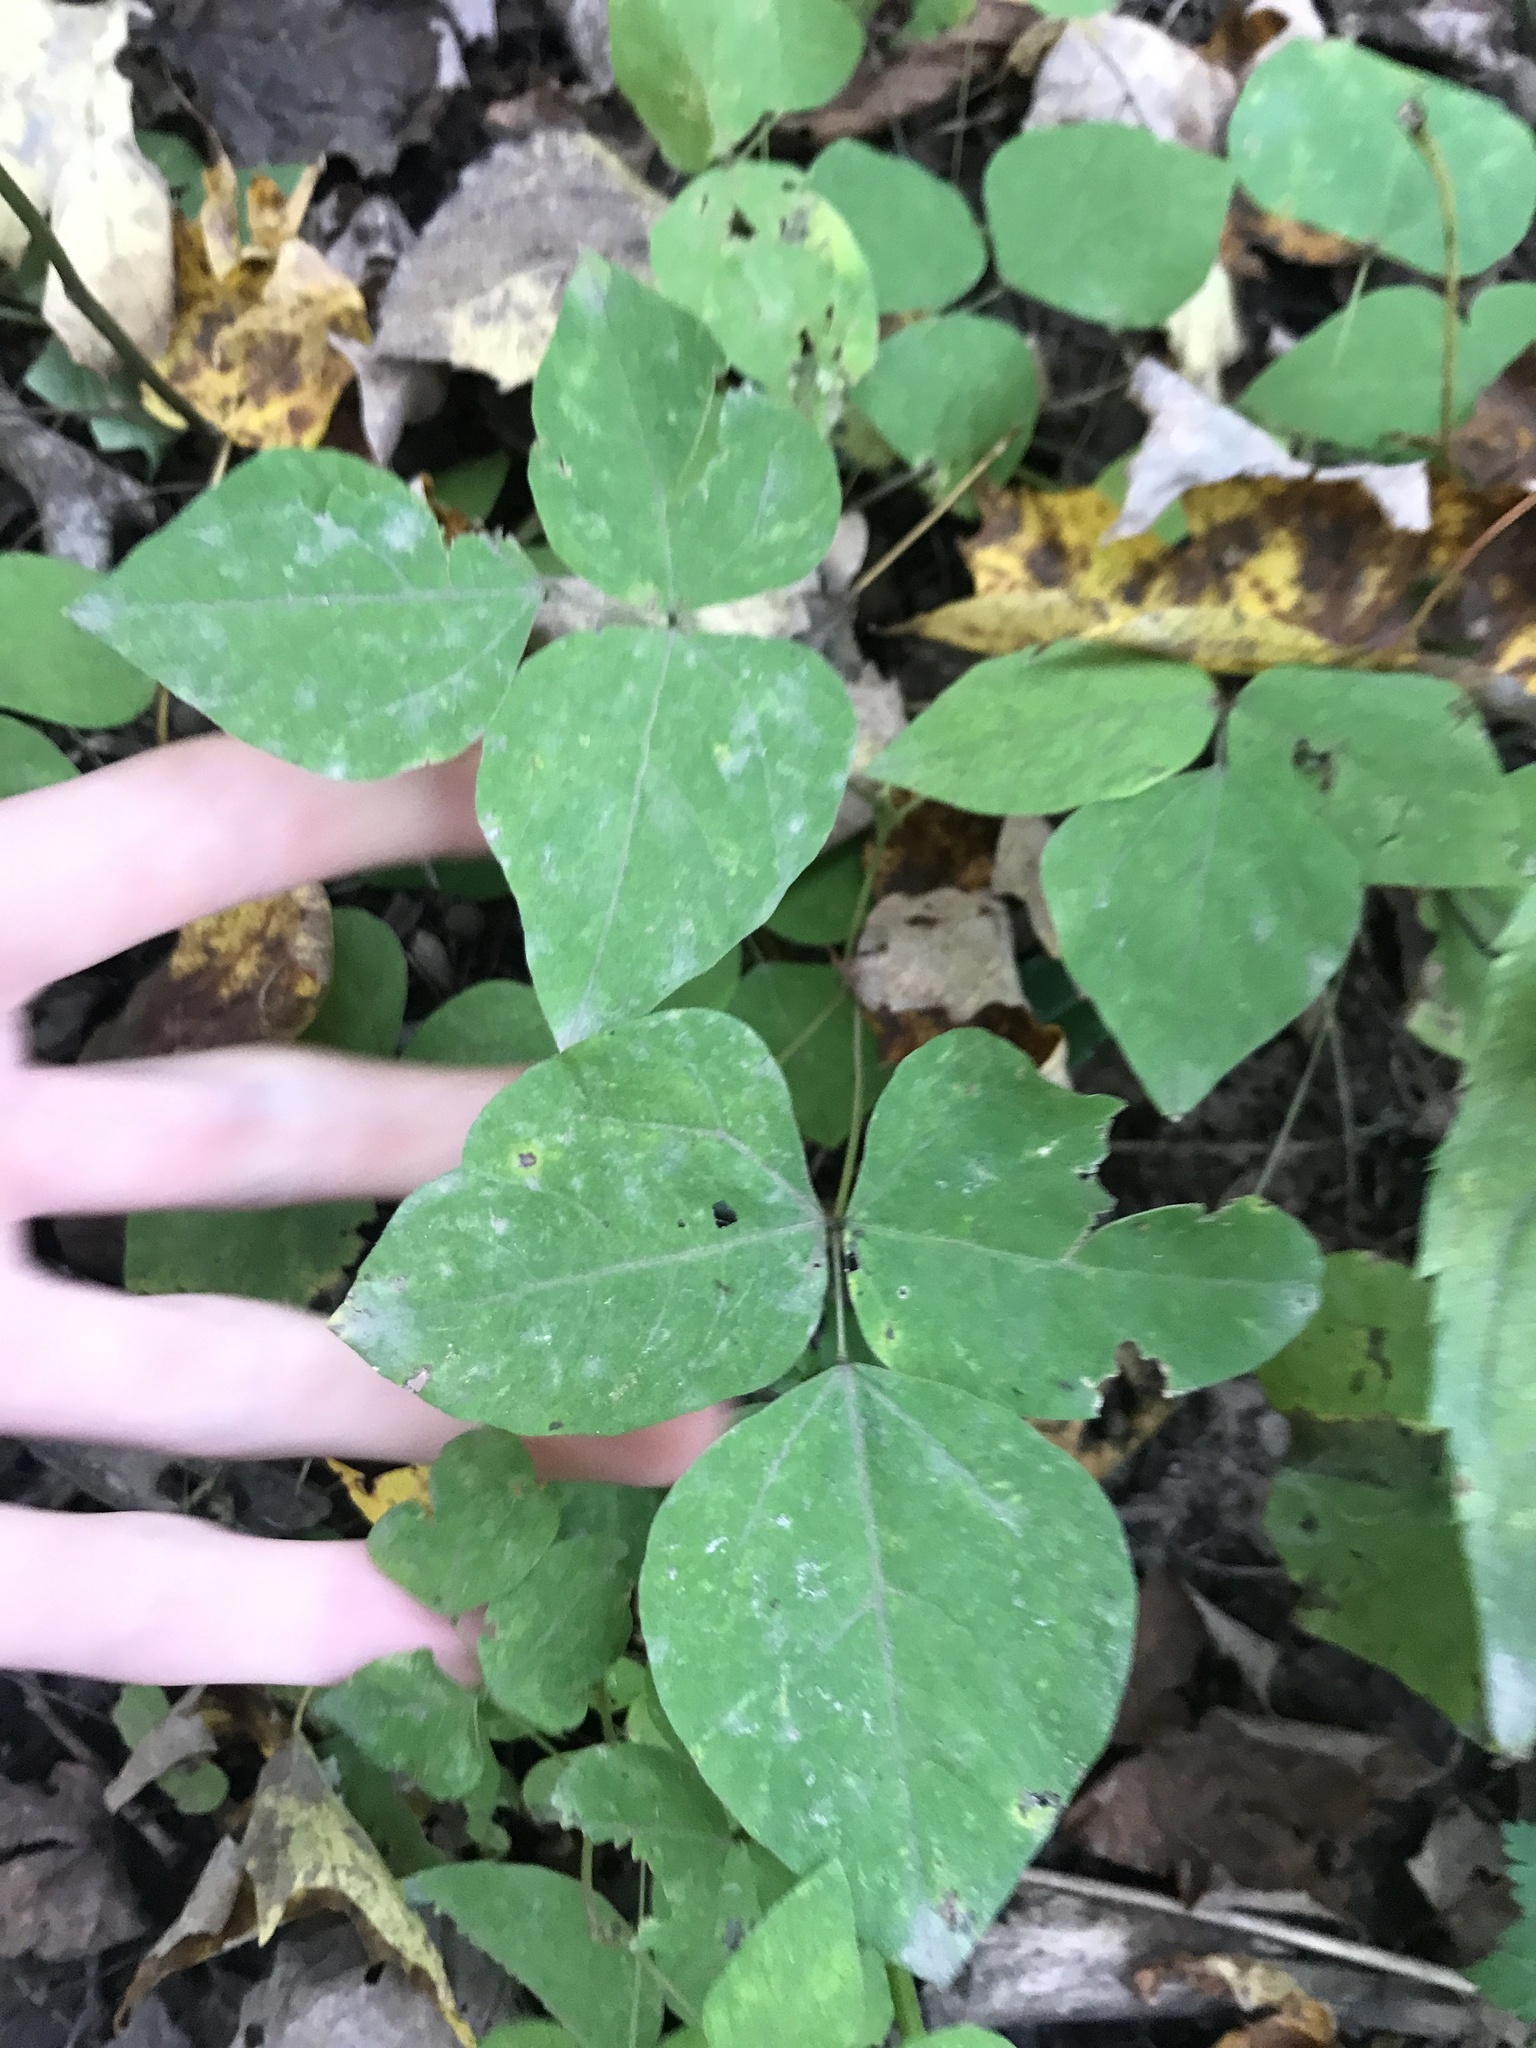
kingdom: Plantae
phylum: Tracheophyta
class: Magnoliopsida
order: Fabales
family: Fabaceae
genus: Amphicarpaea
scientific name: Amphicarpaea bracteata
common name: American hog peanut
